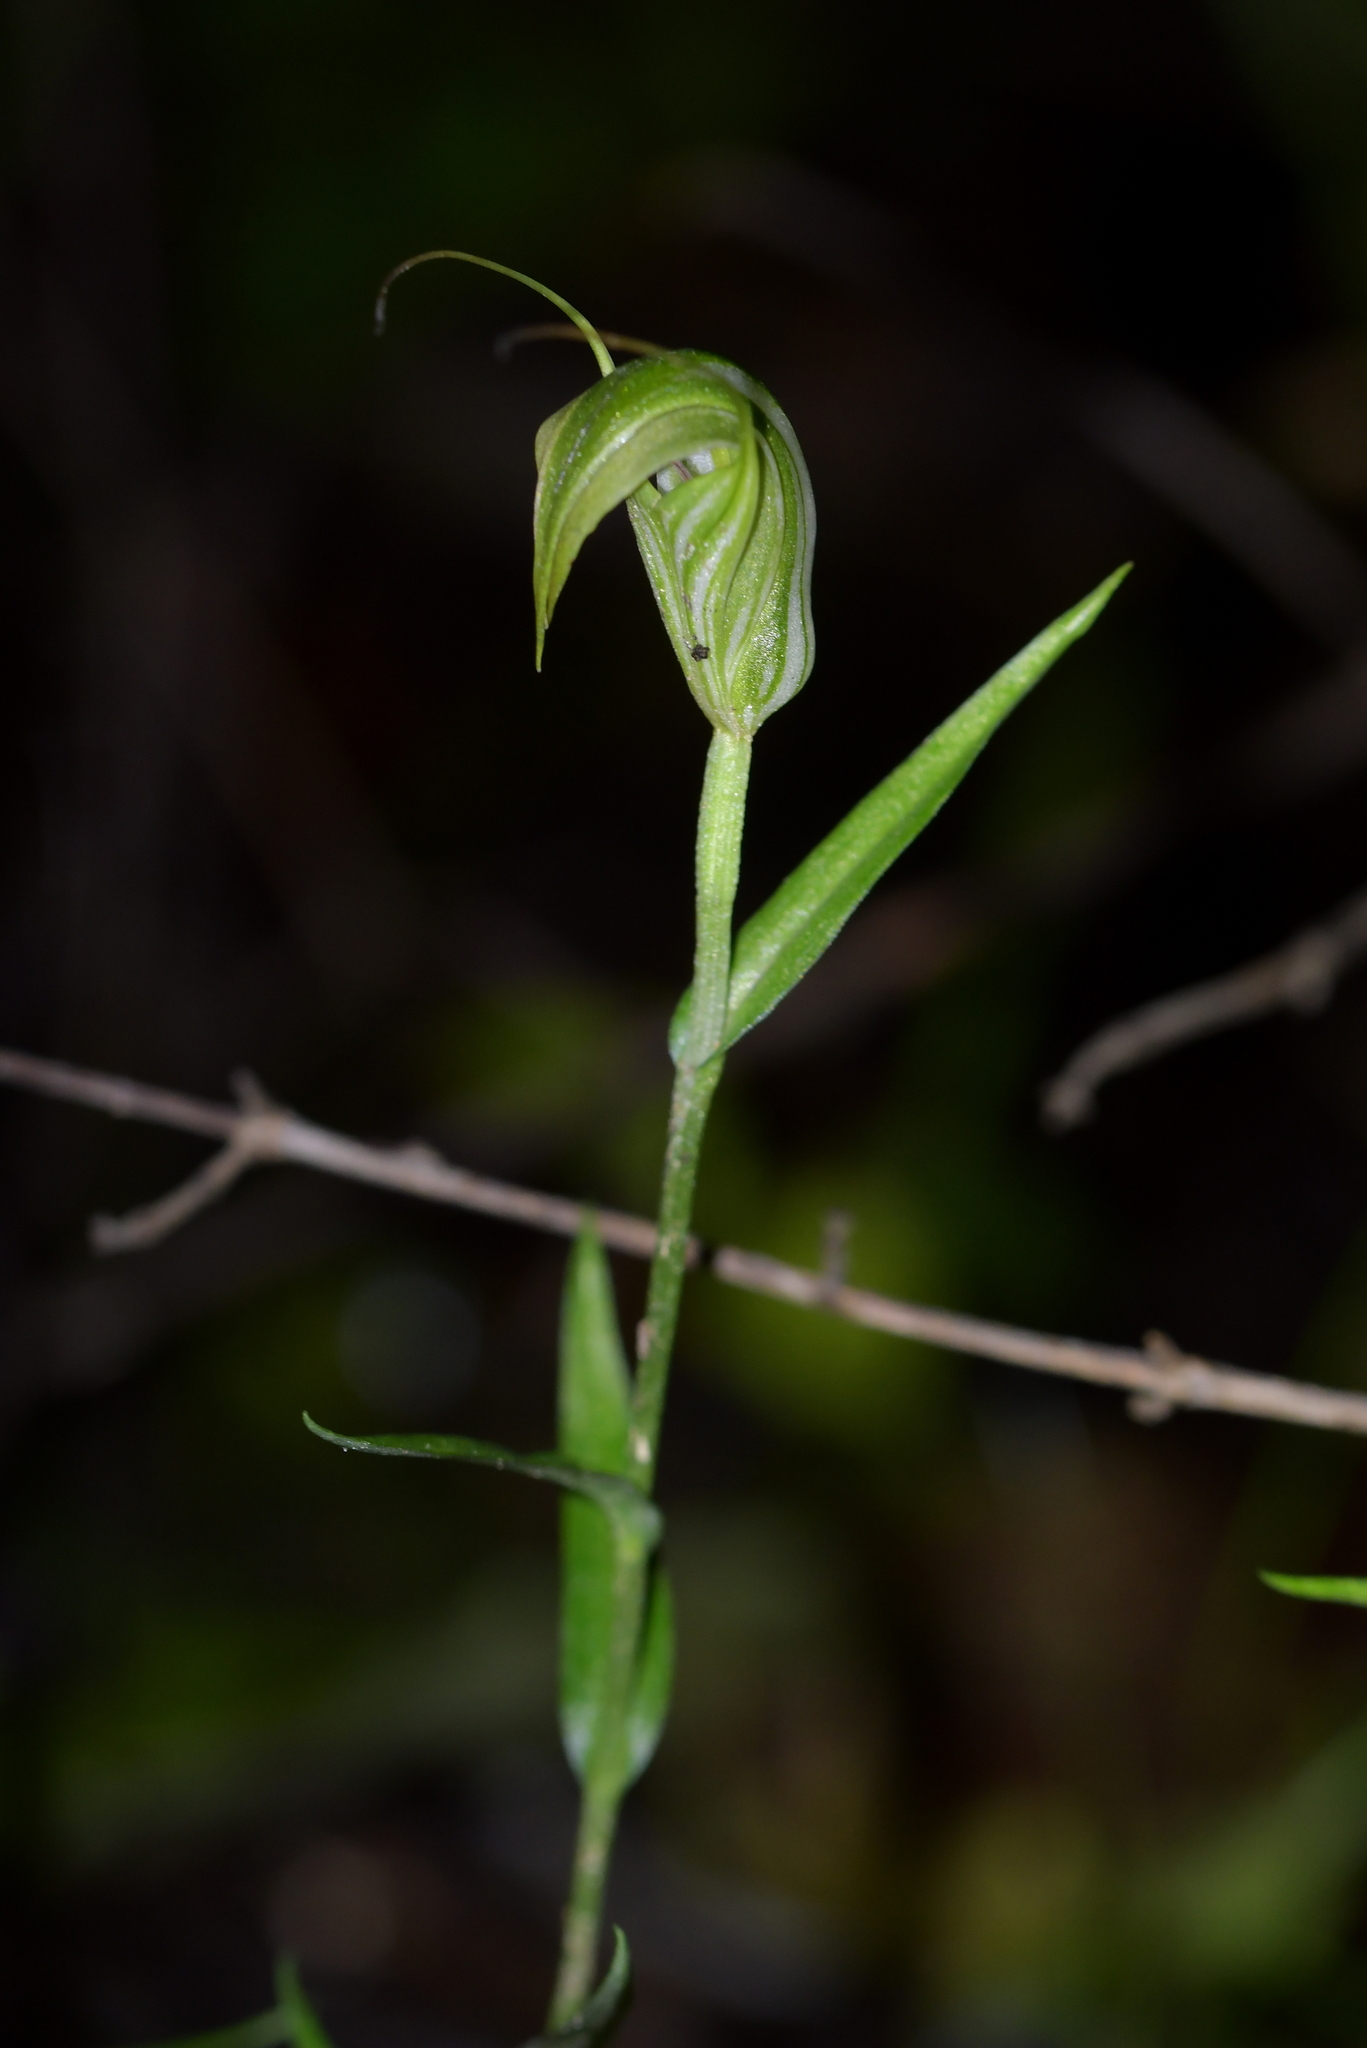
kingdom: Plantae
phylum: Tracheophyta
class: Liliopsida
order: Asparagales
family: Orchidaceae
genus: Pterostylis
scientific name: Pterostylis alobula
